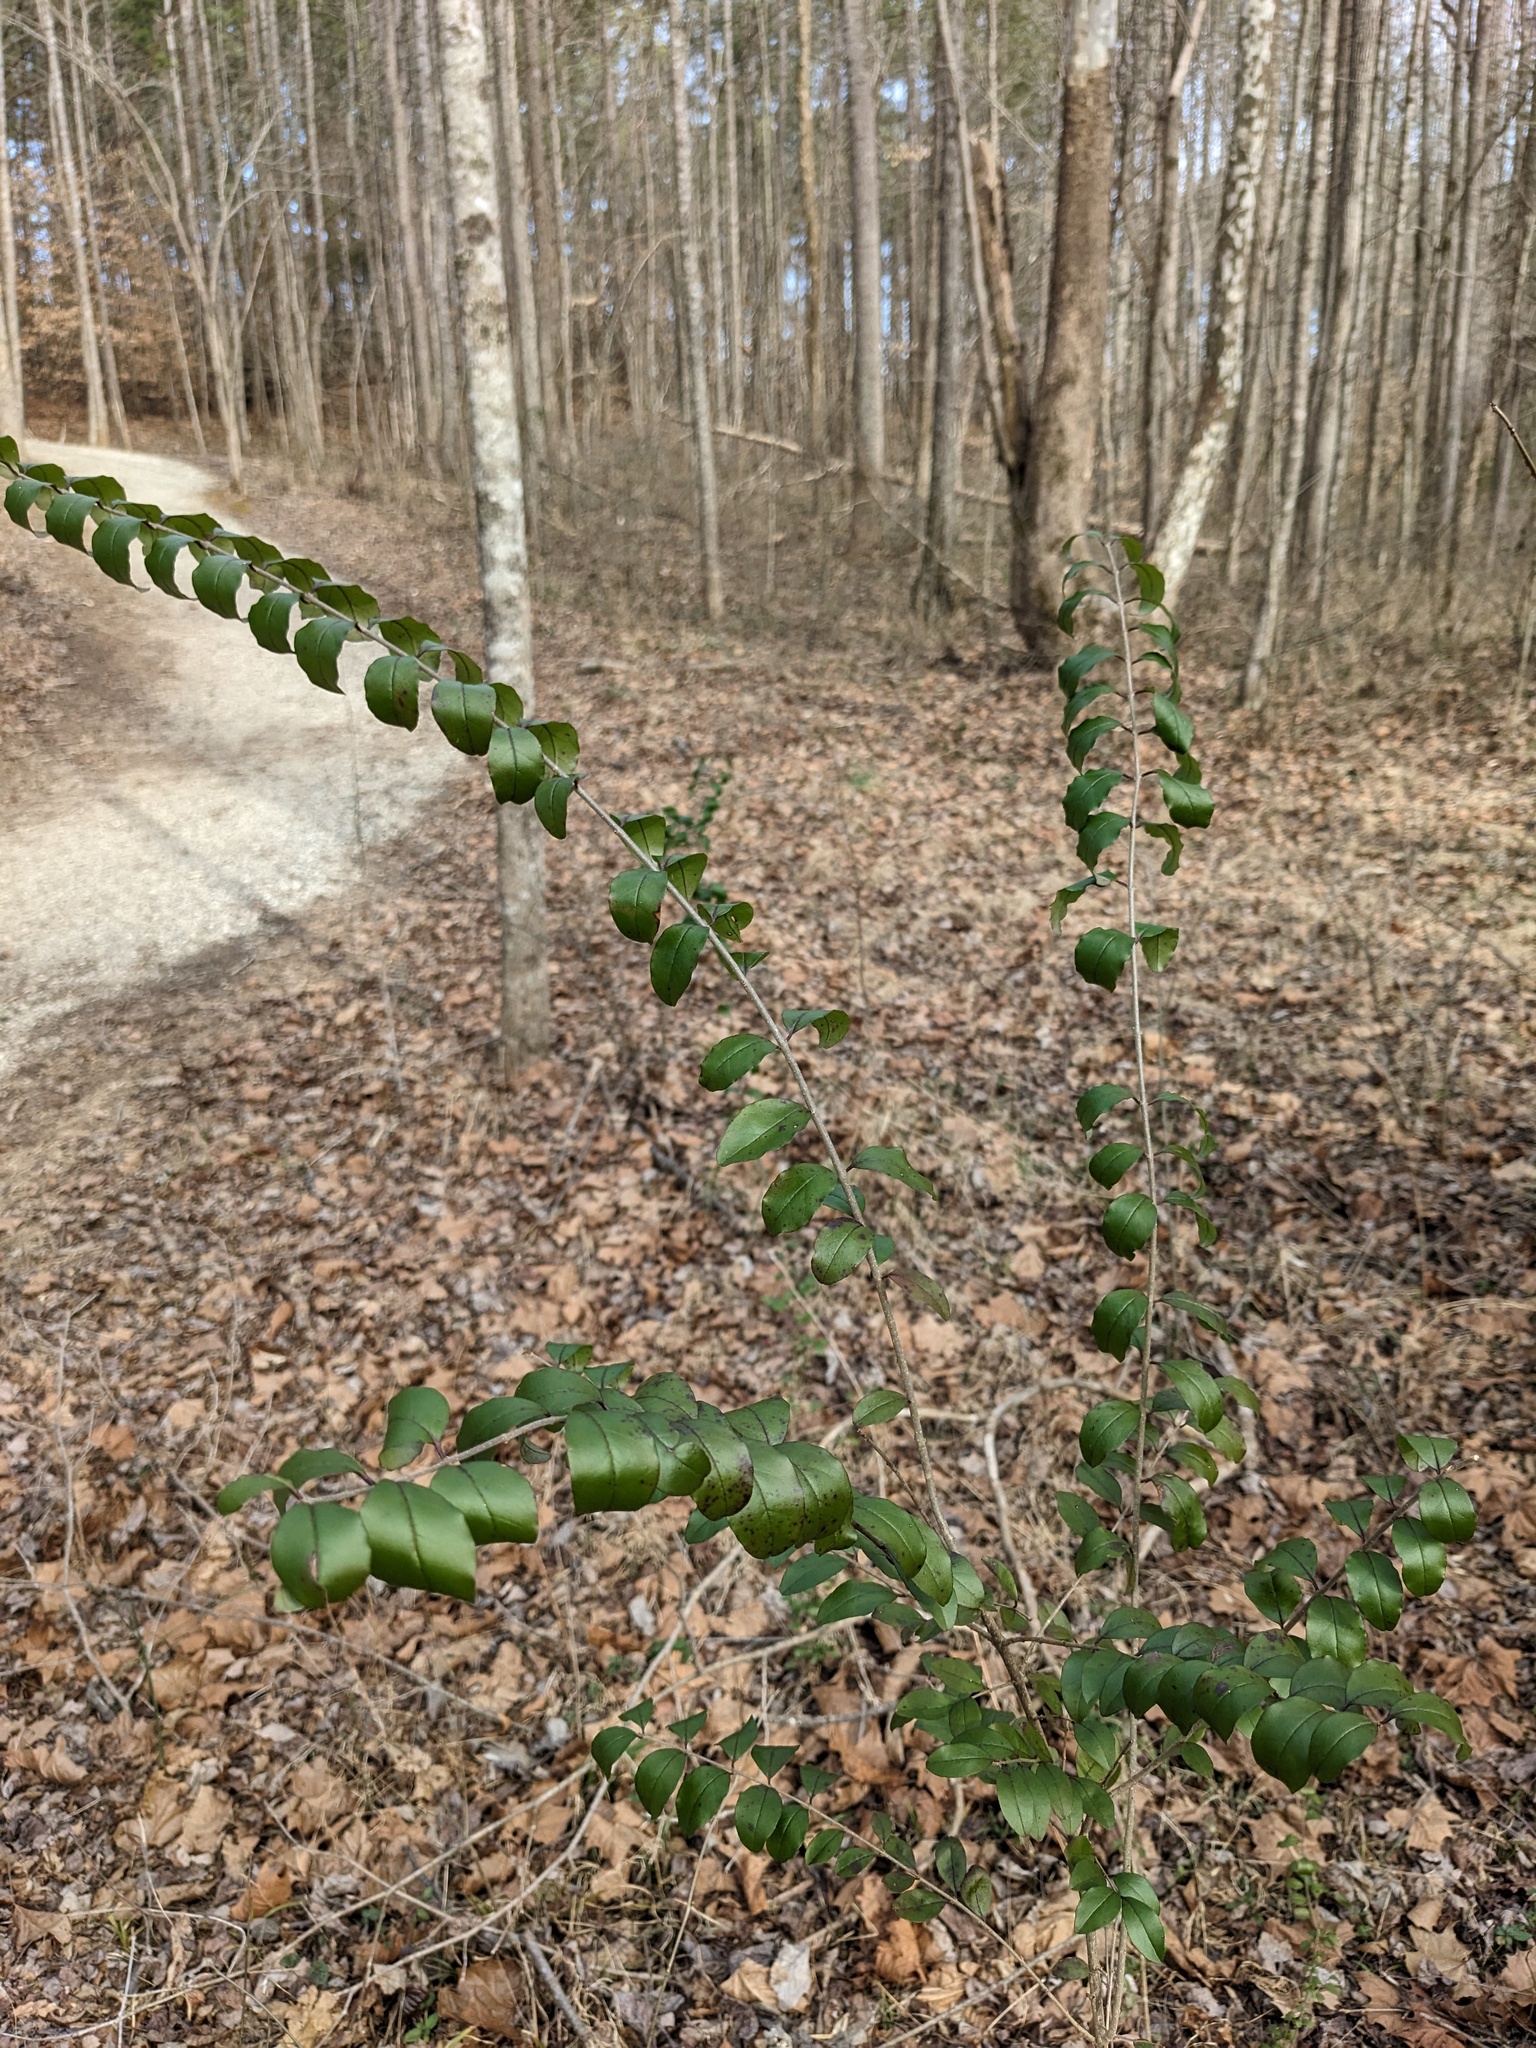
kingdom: Plantae
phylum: Tracheophyta
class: Magnoliopsida
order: Lamiales
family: Oleaceae
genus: Ligustrum
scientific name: Ligustrum sinense
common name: Chinese privet
